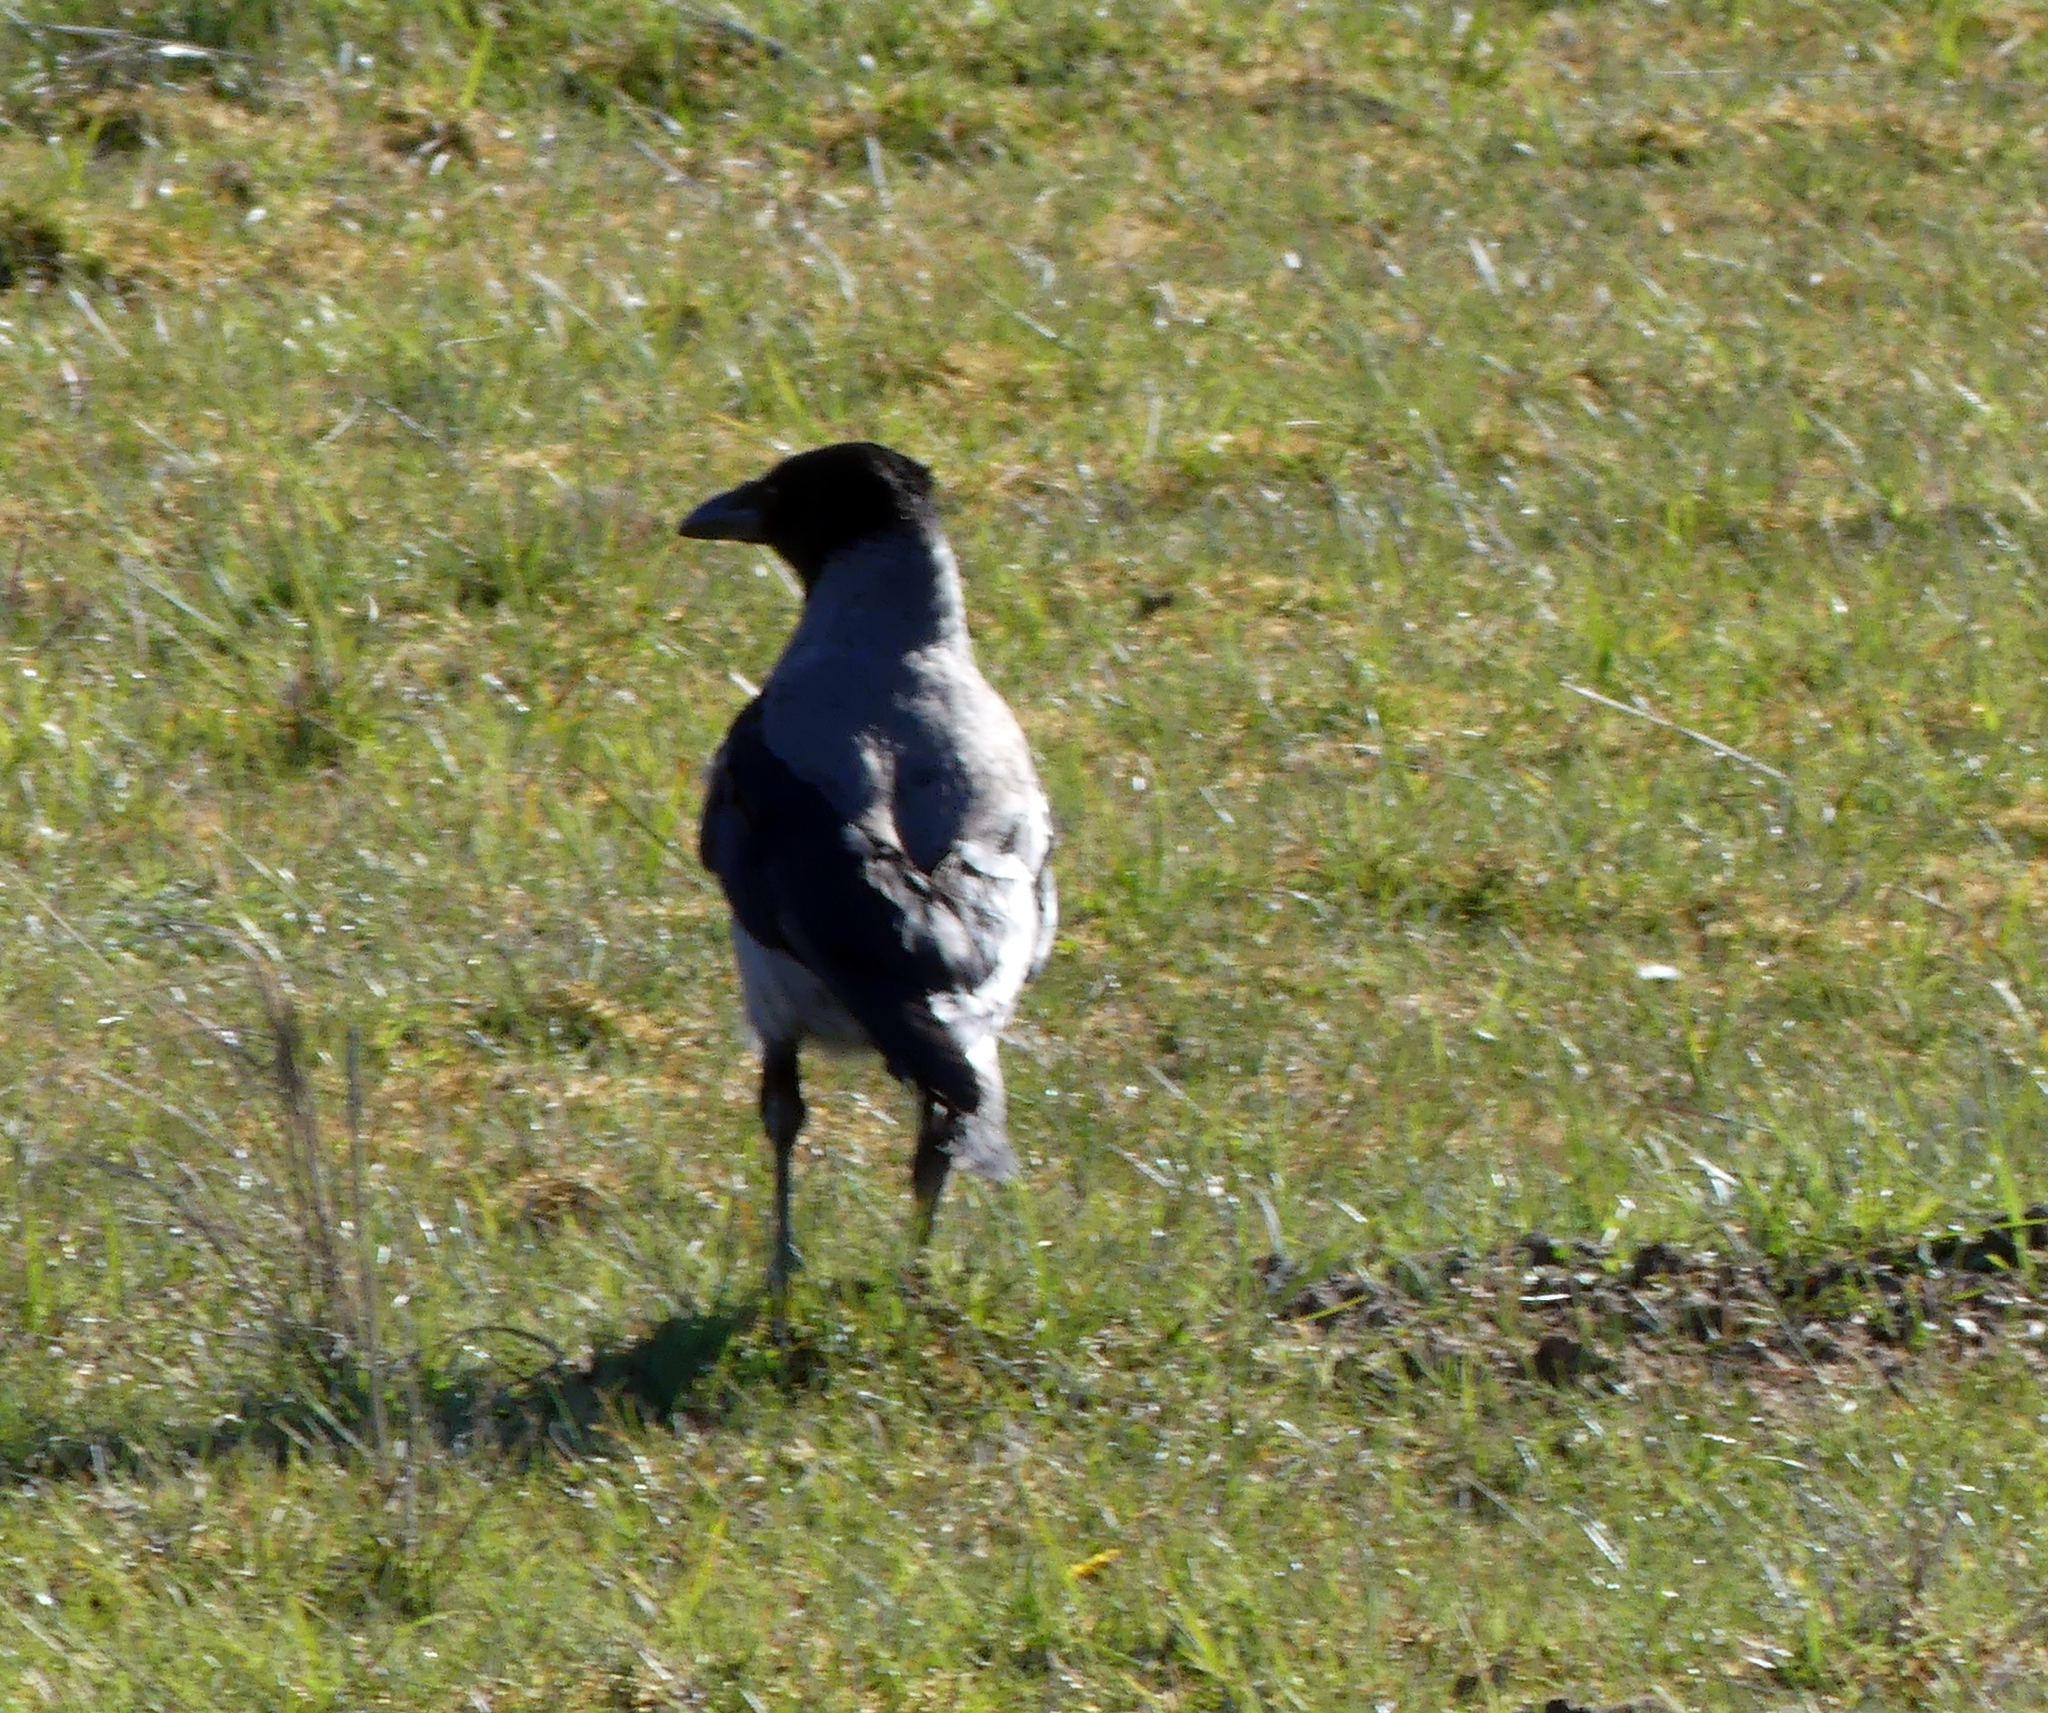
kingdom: Animalia
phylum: Chordata
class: Aves
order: Passeriformes
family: Corvidae
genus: Corvus
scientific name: Corvus cornix
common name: Hooded crow
